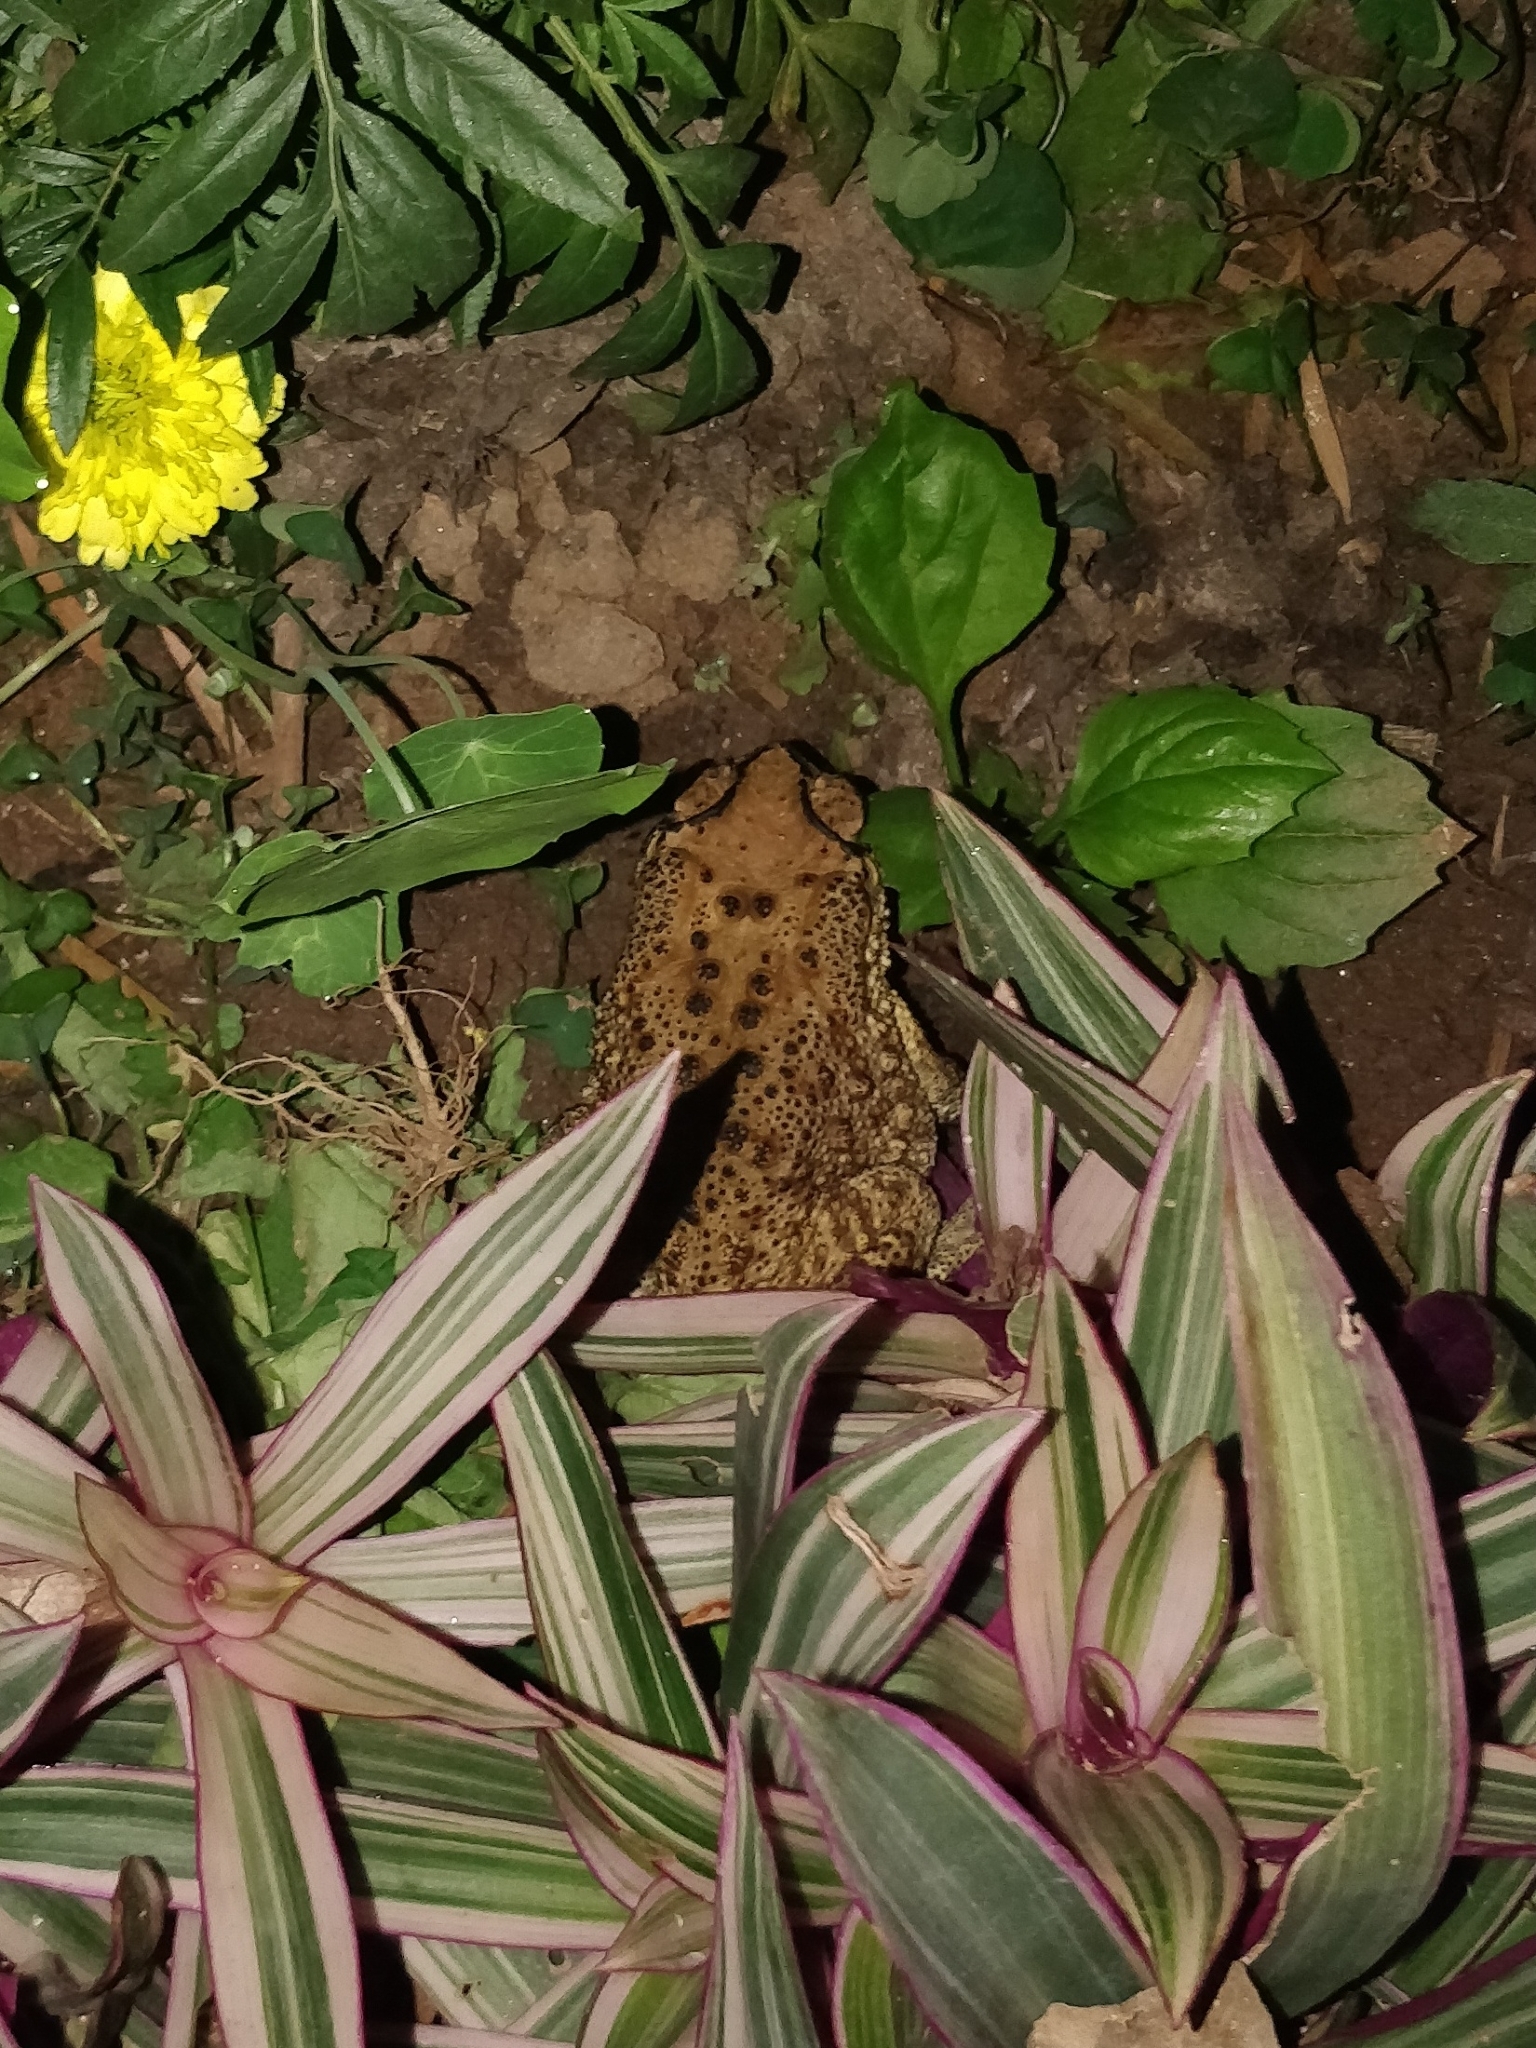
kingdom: Animalia
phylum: Chordata
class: Amphibia
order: Anura
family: Bufonidae
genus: Duttaphrynus
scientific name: Duttaphrynus melanostictus
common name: Common sunda toad
